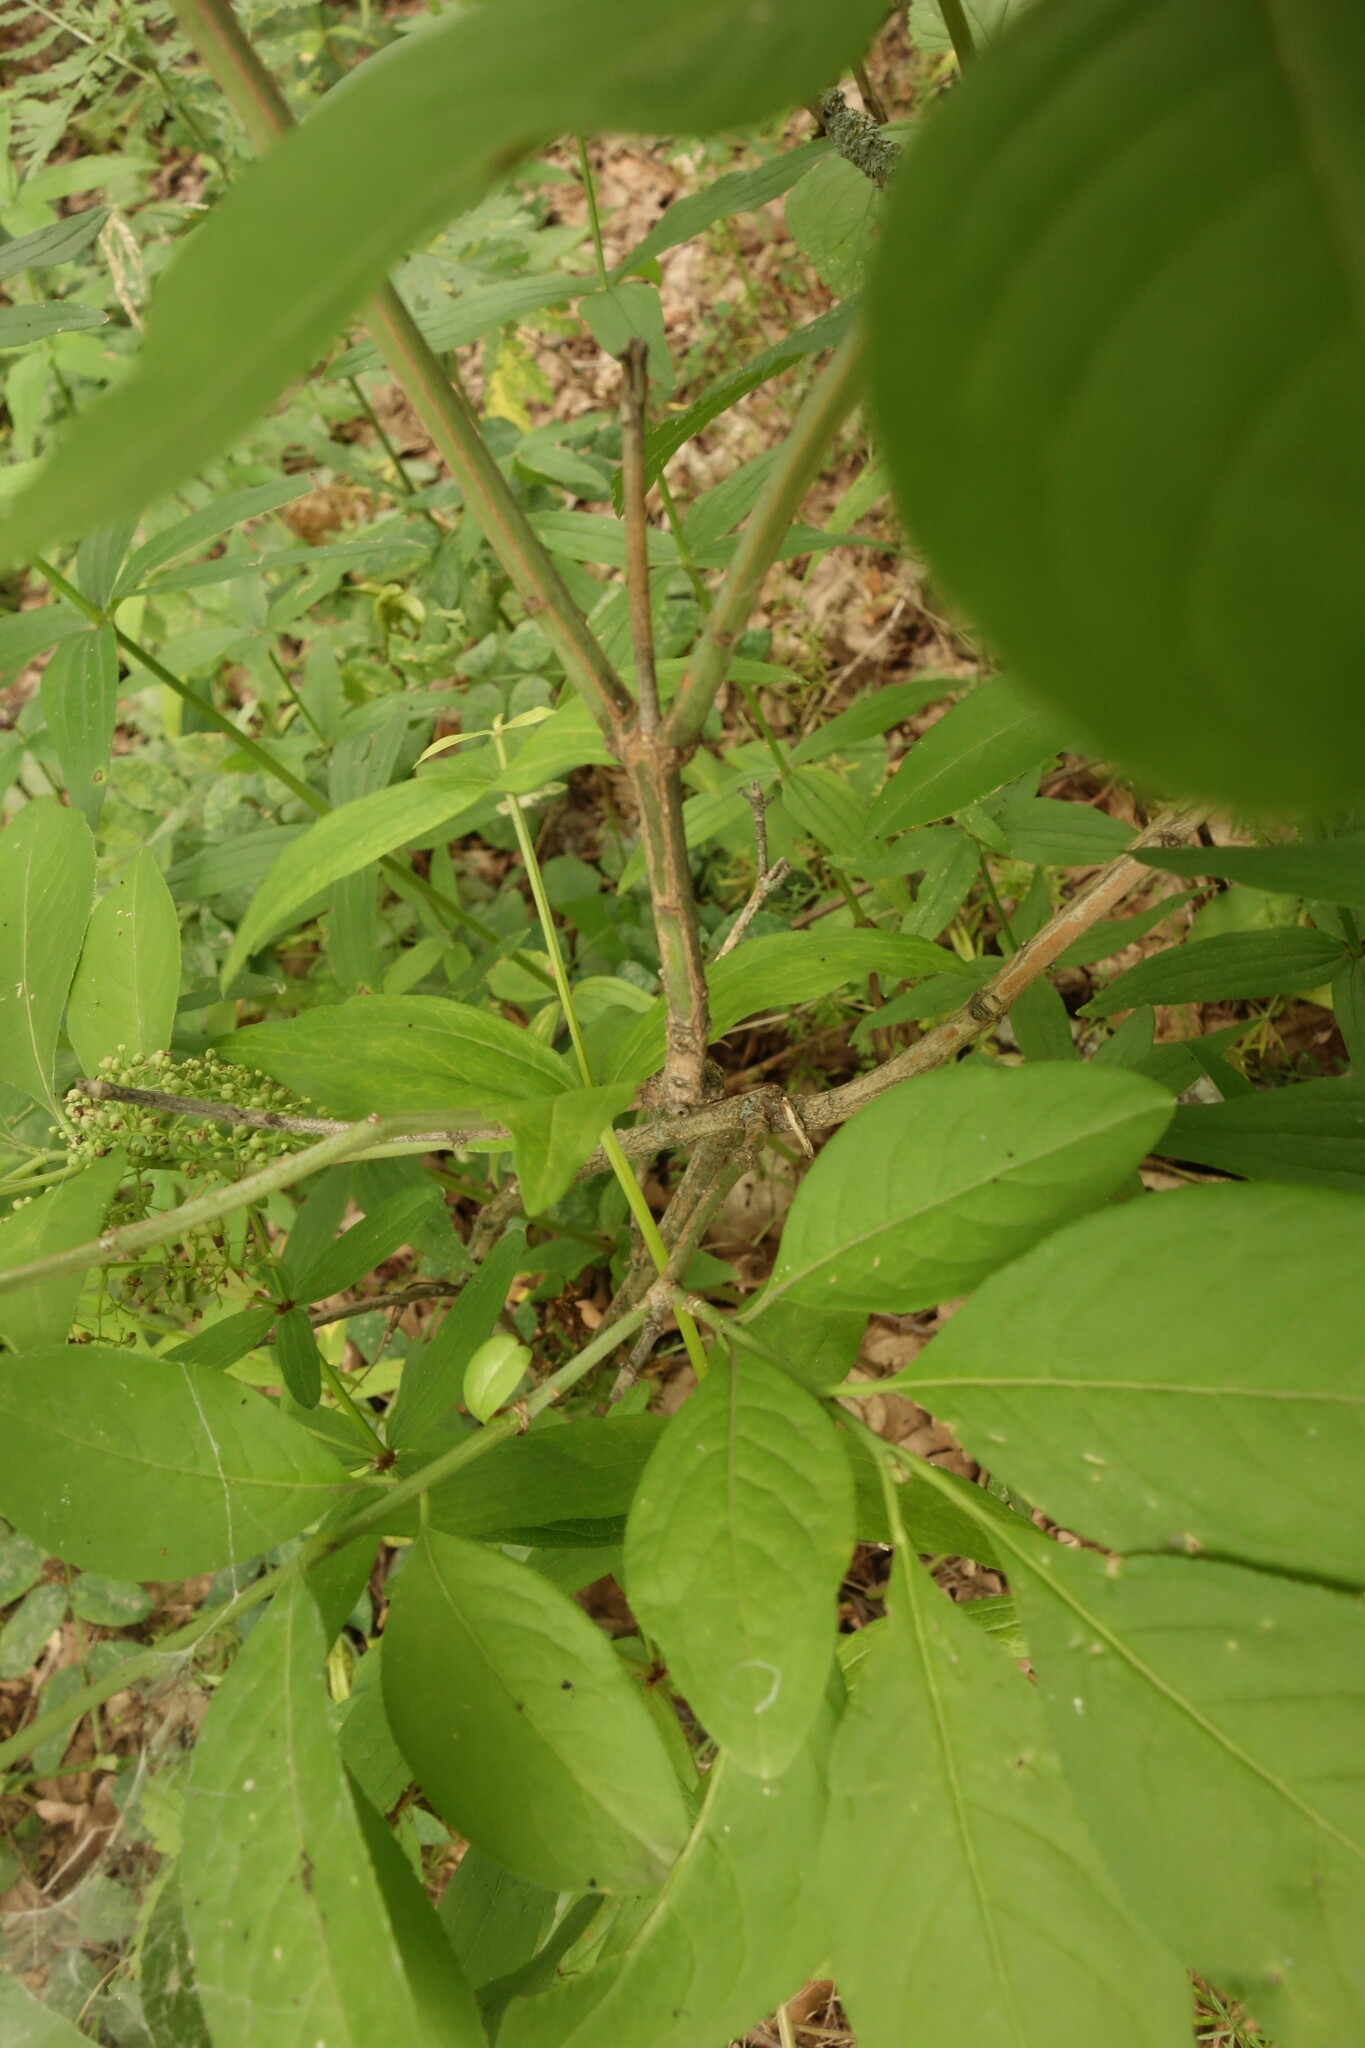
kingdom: Plantae
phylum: Tracheophyta
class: Magnoliopsida
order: Celastrales
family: Celastraceae
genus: Euonymus
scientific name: Euonymus europaeus
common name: Spindle
